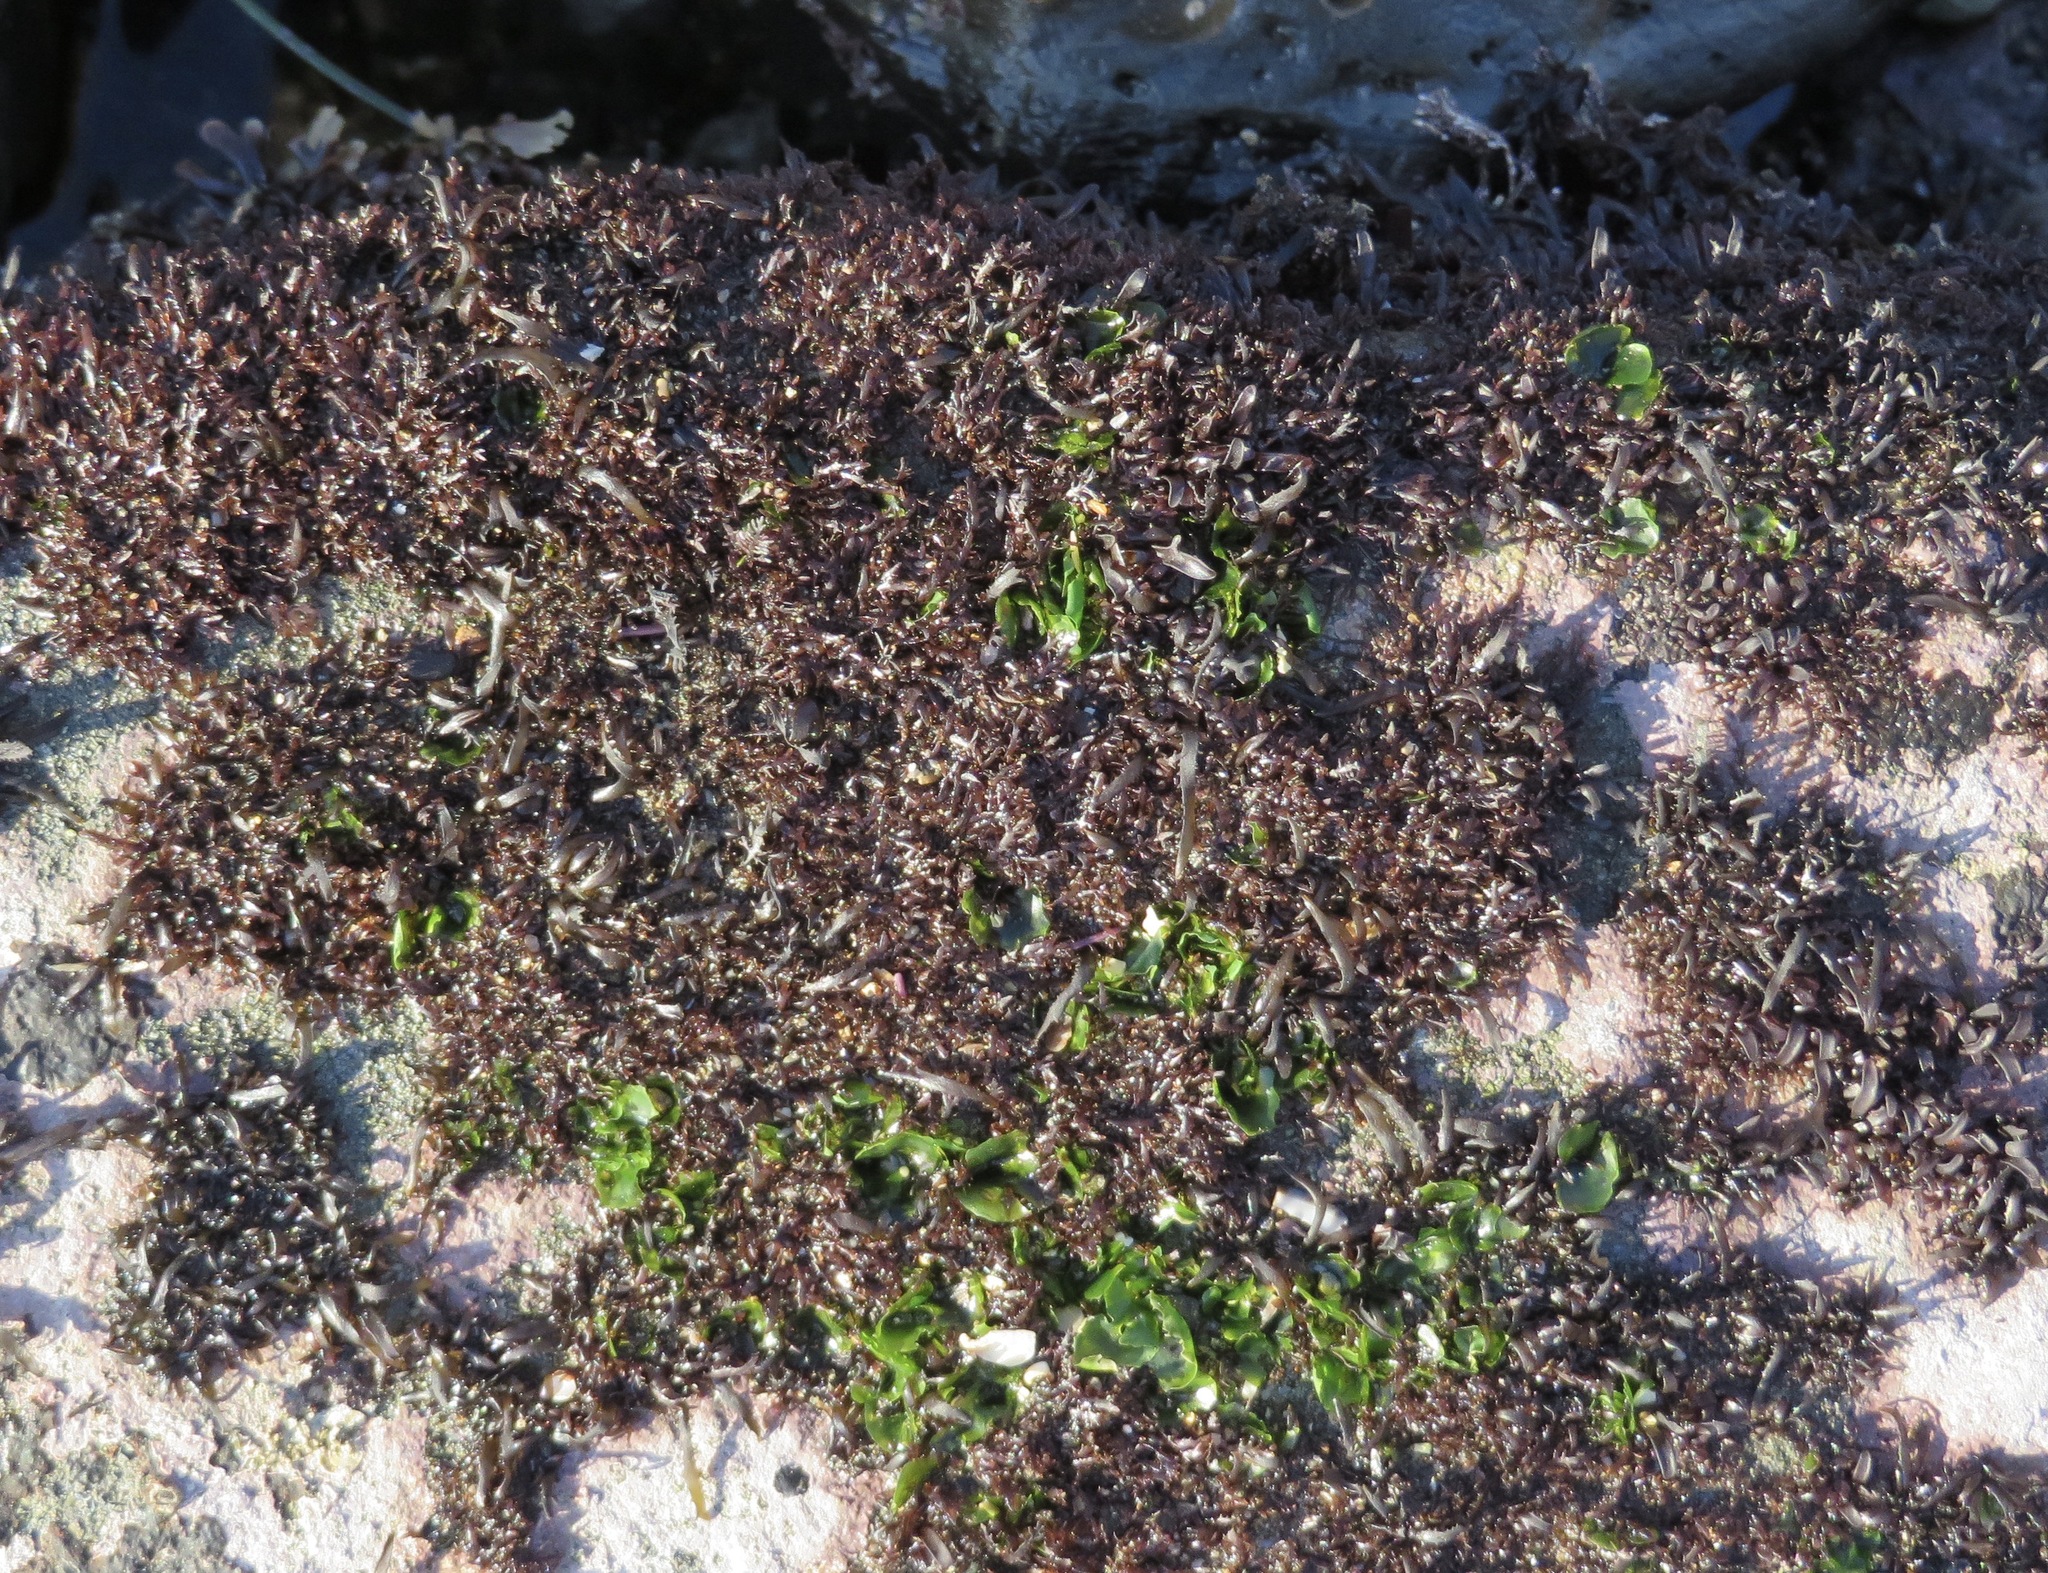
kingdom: Plantae
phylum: Rhodophyta
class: Florideophyceae
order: Gigartinales
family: Gigartinaceae
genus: Chondracanthus
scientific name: Chondracanthus canaliculatus
